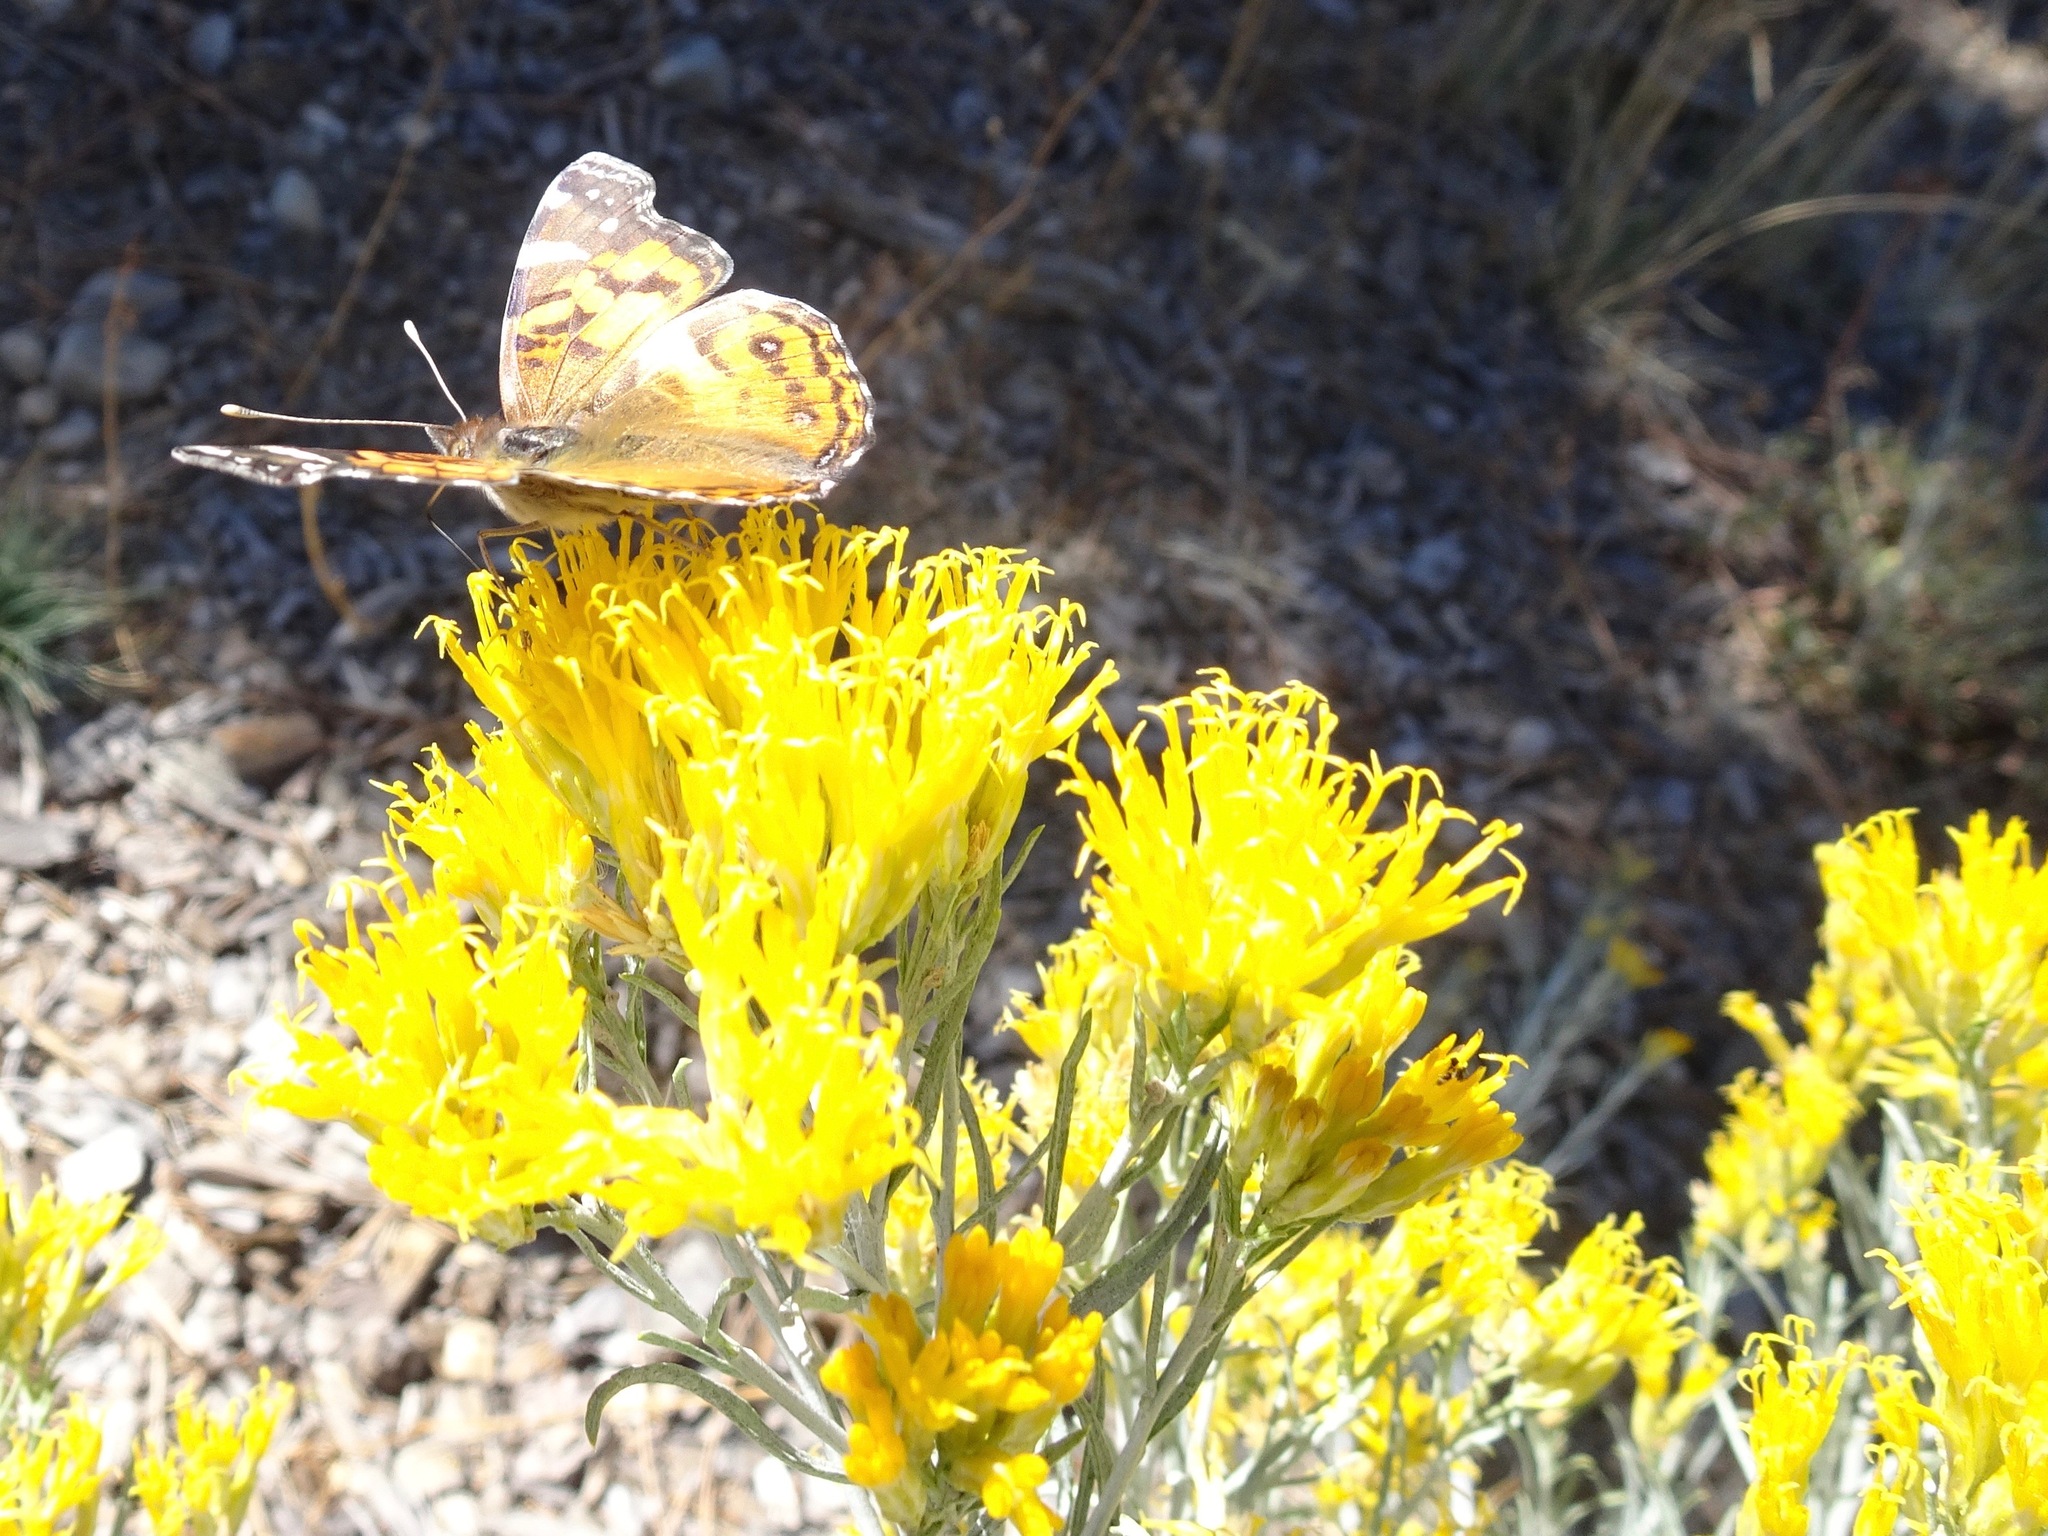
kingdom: Animalia
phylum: Arthropoda
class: Insecta
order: Lepidoptera
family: Nymphalidae
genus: Vanessa
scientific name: Vanessa virginiensis
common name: American lady
